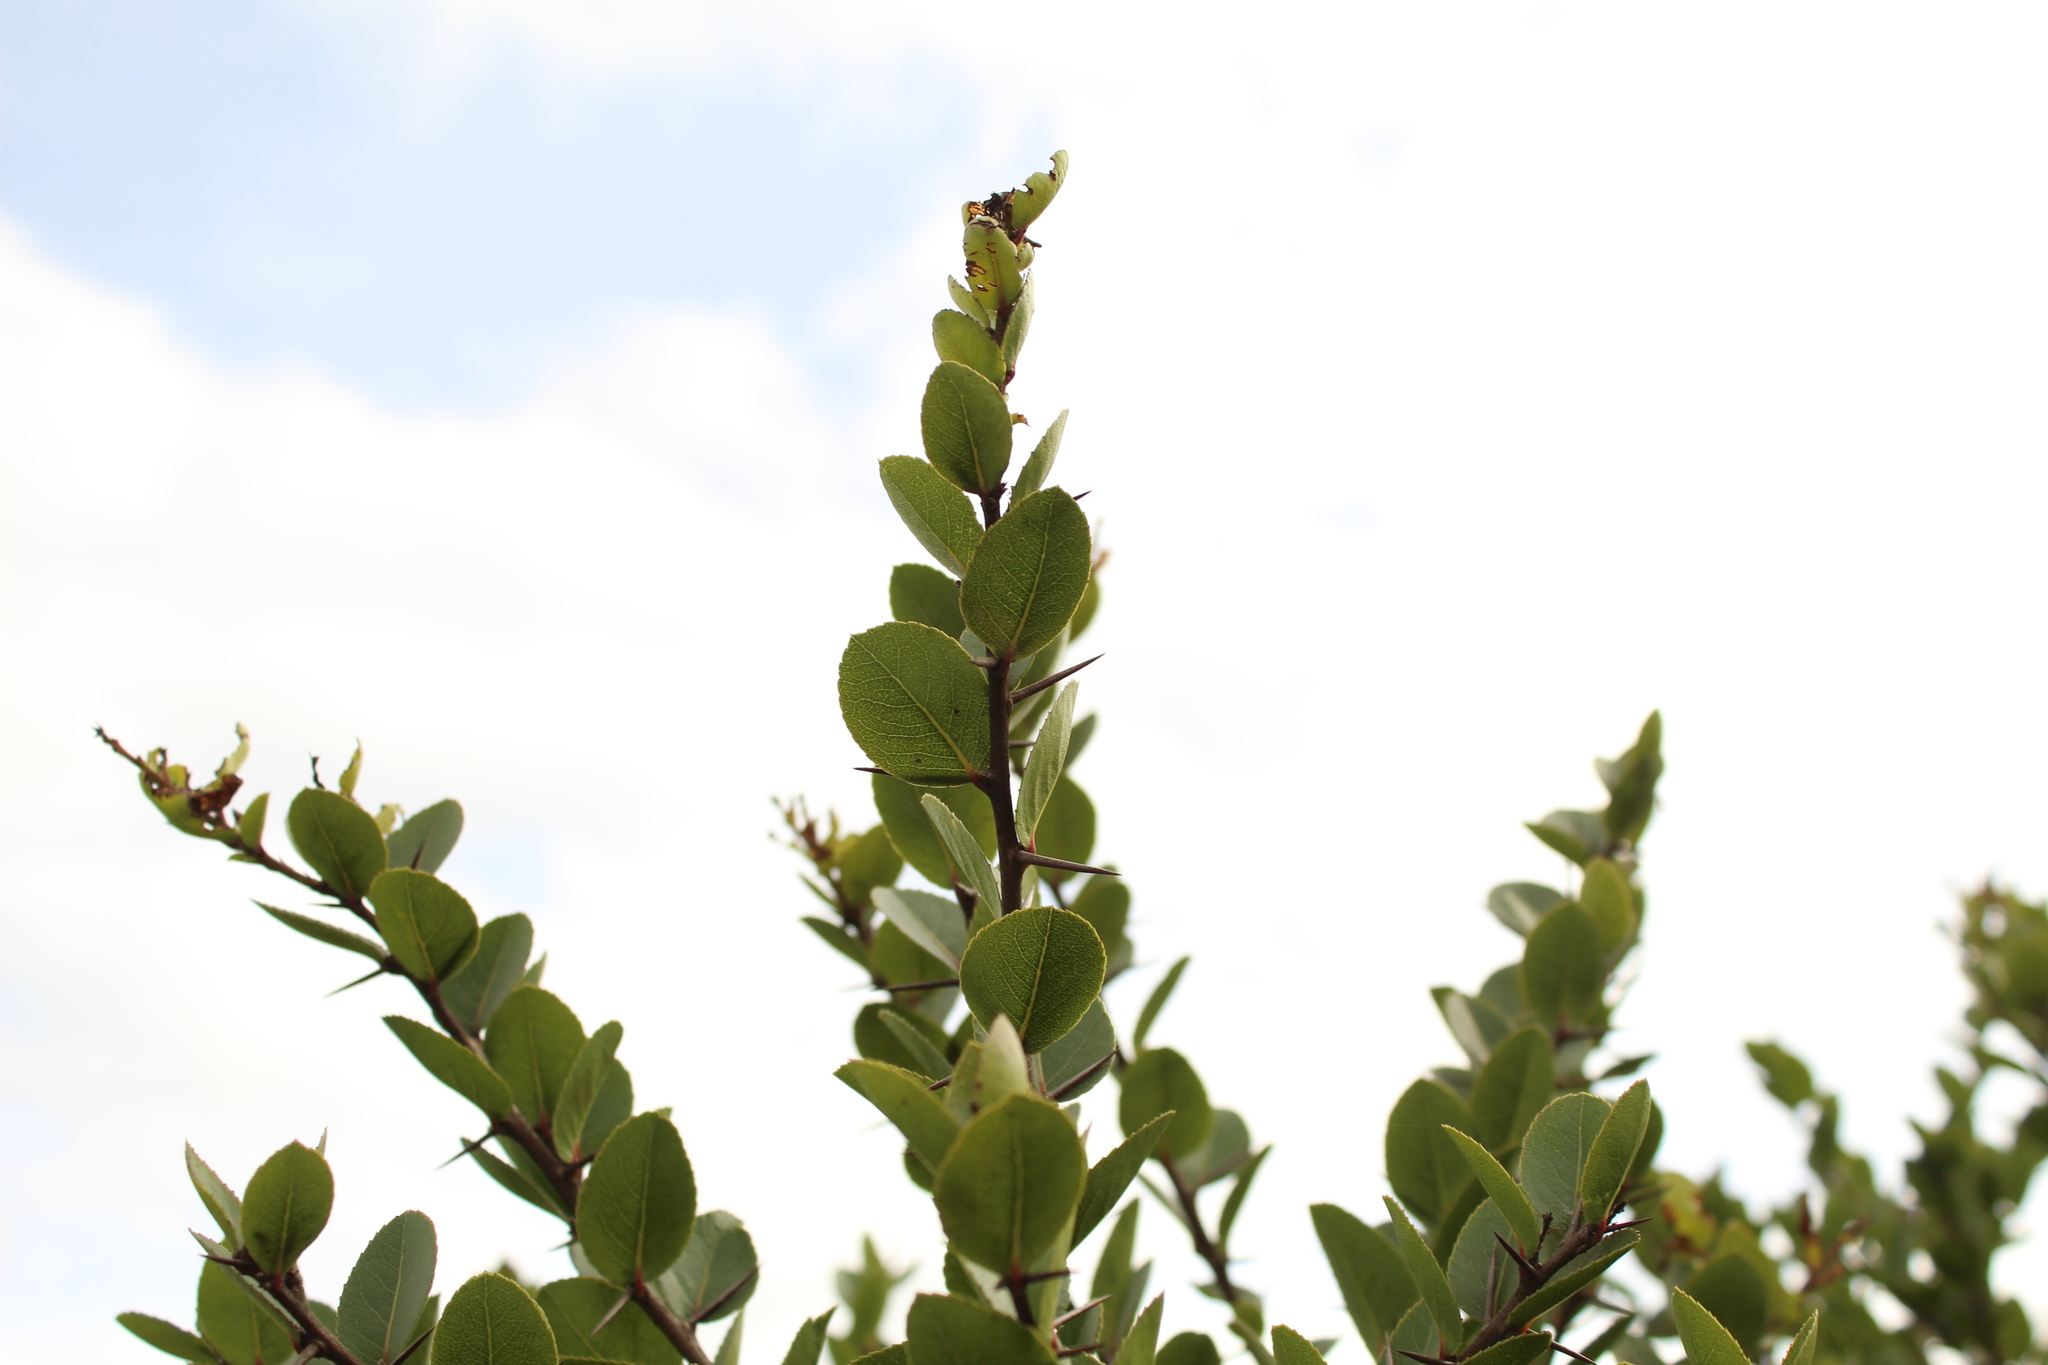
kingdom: Plantae
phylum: Tracheophyta
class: Magnoliopsida
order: Malpighiales
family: Salicaceae
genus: Xylosma
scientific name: Xylosma spiculifera
